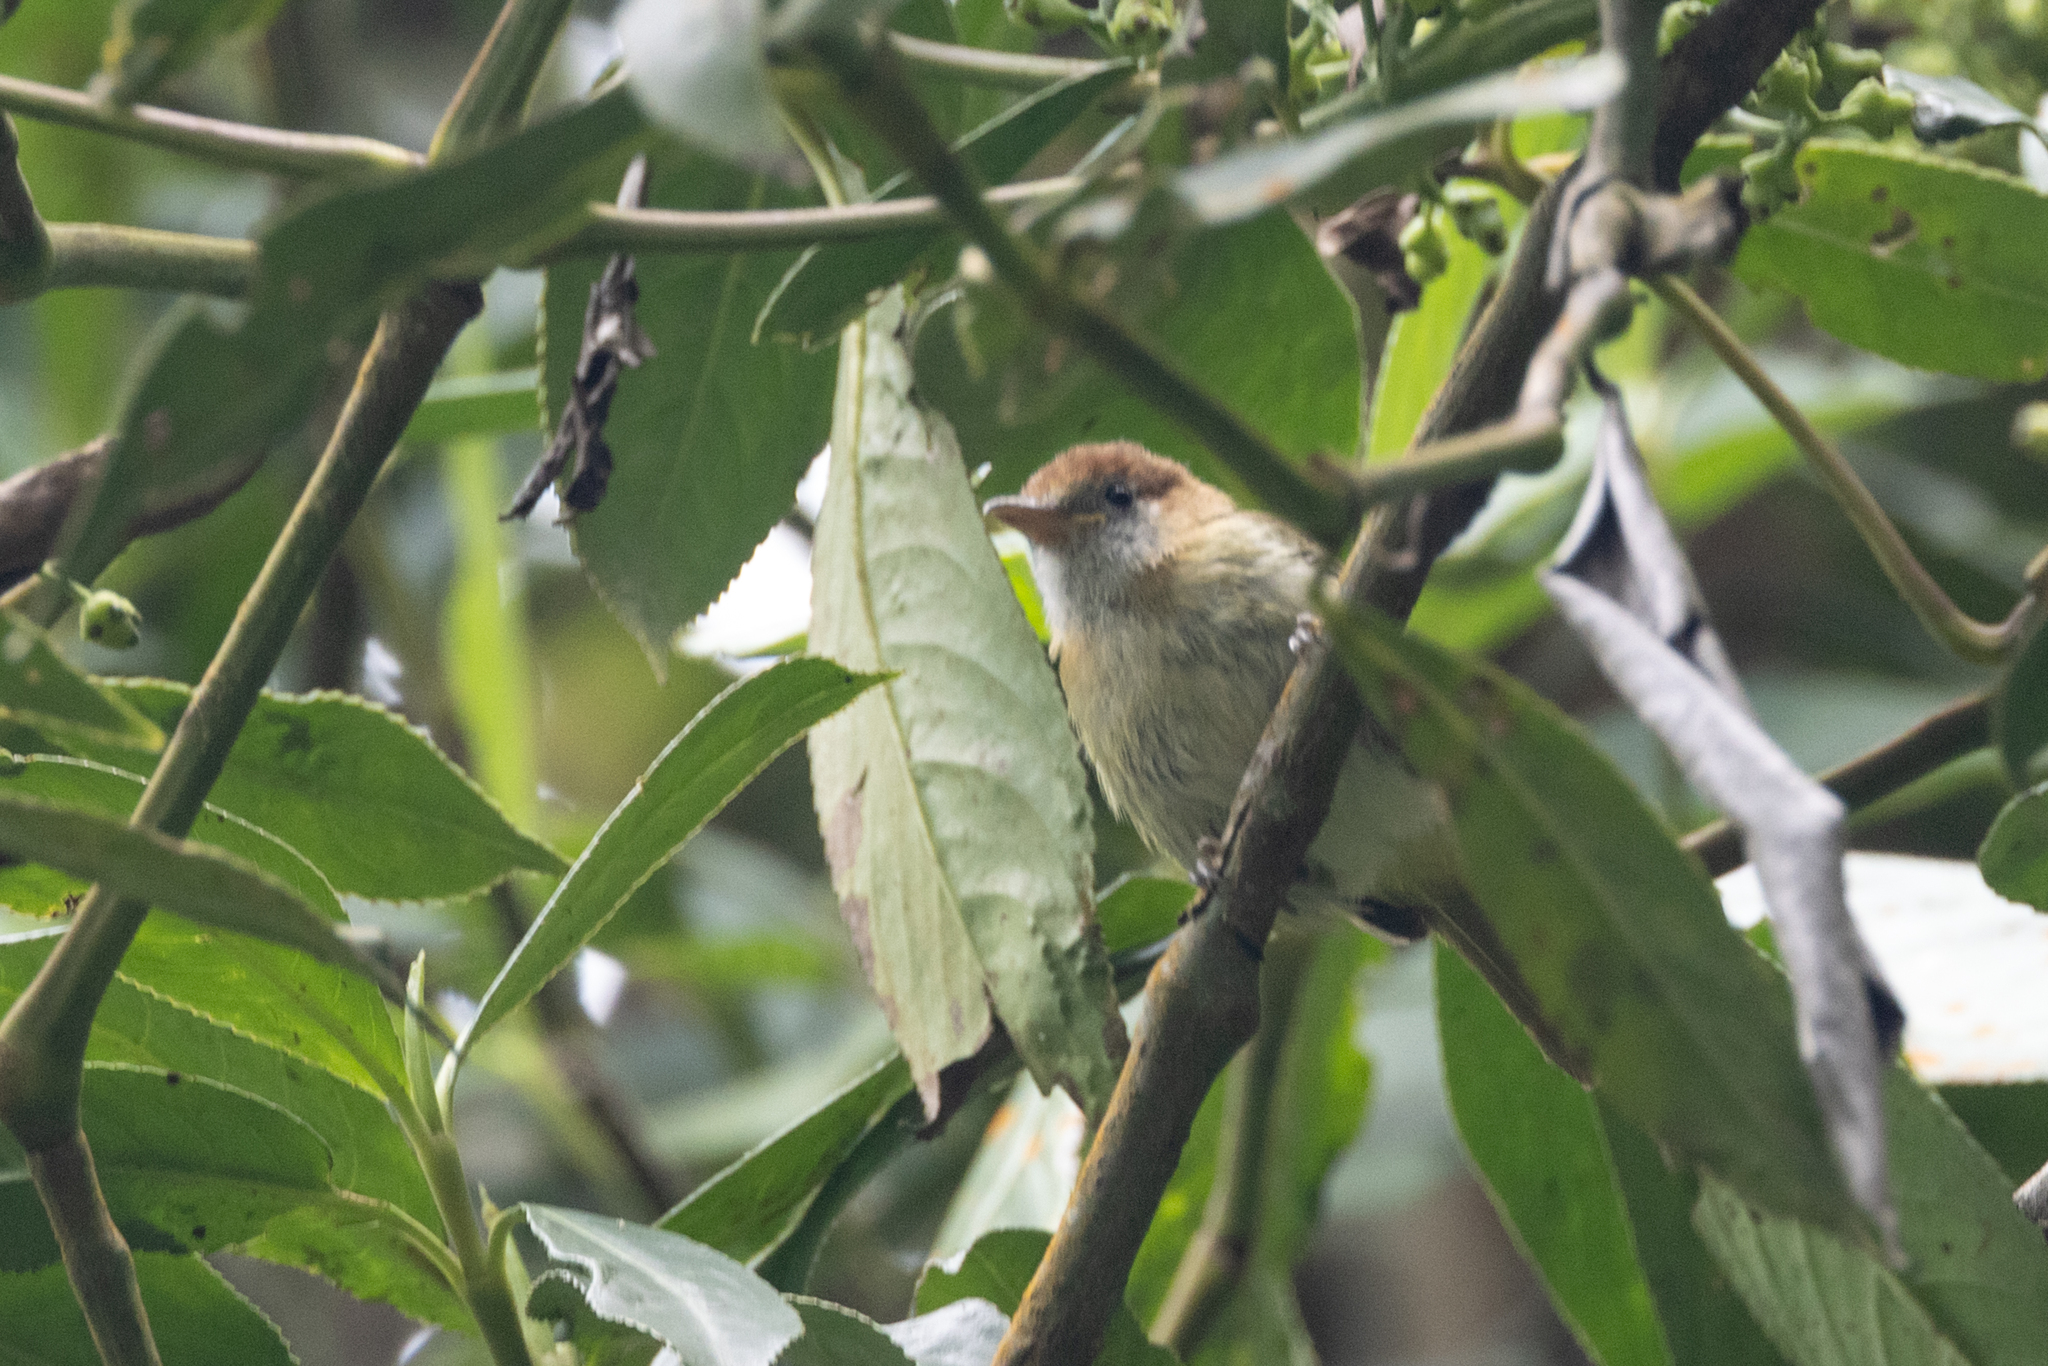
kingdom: Animalia
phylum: Chordata
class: Aves
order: Passeriformes
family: Vireonidae
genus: Hylophilus
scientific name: Hylophilus semibrunneus
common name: Rufous-naped greenlet
